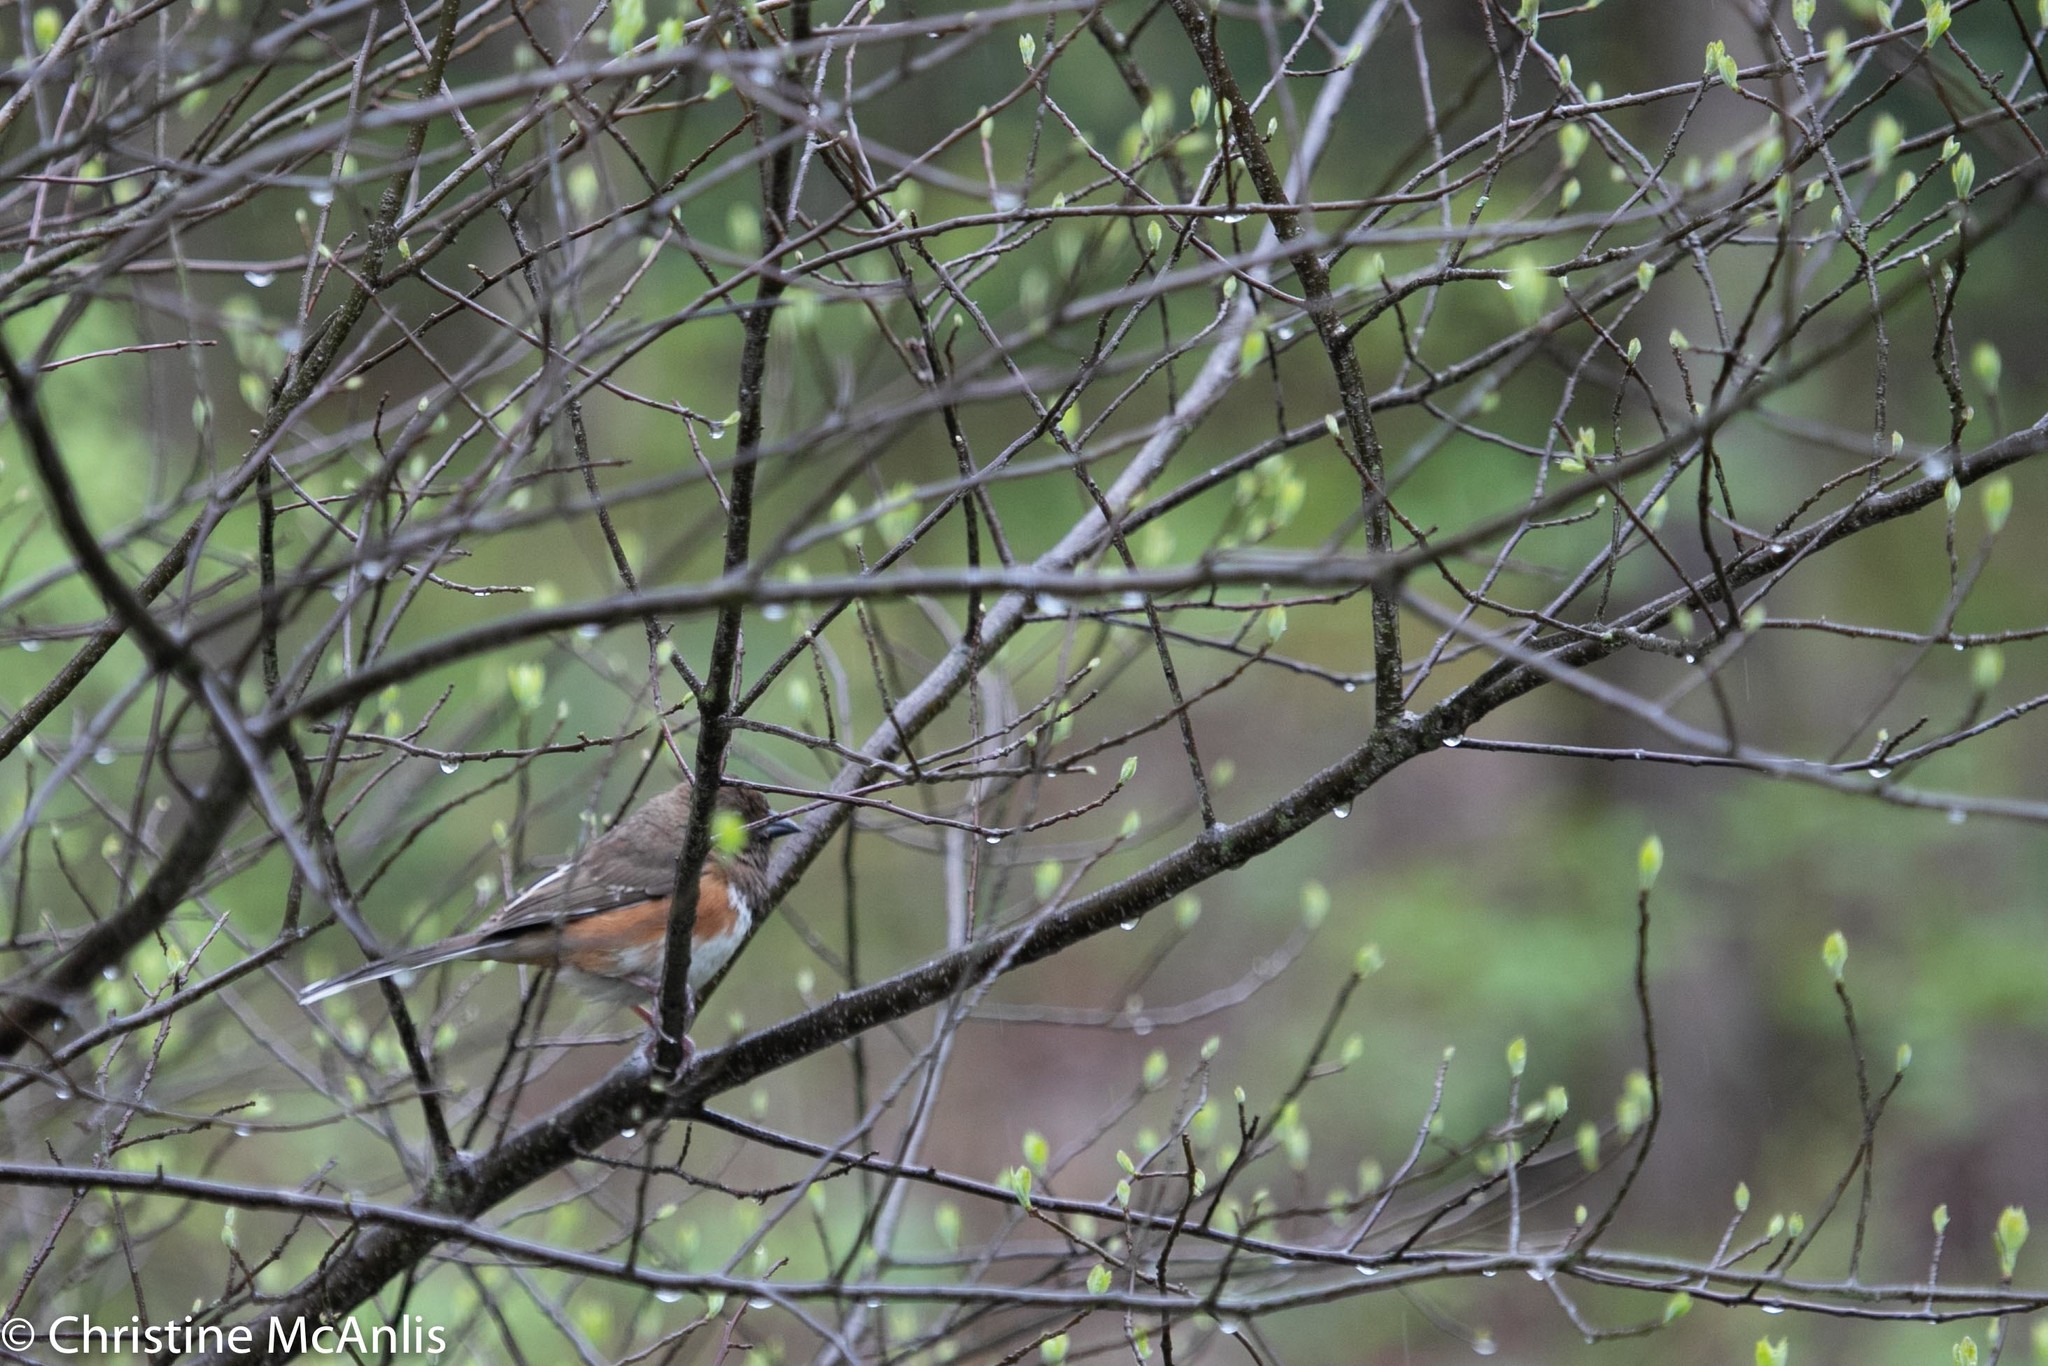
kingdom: Animalia
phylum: Chordata
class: Aves
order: Passeriformes
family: Passerellidae
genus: Pipilo
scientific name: Pipilo erythrophthalmus
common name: Eastern towhee
